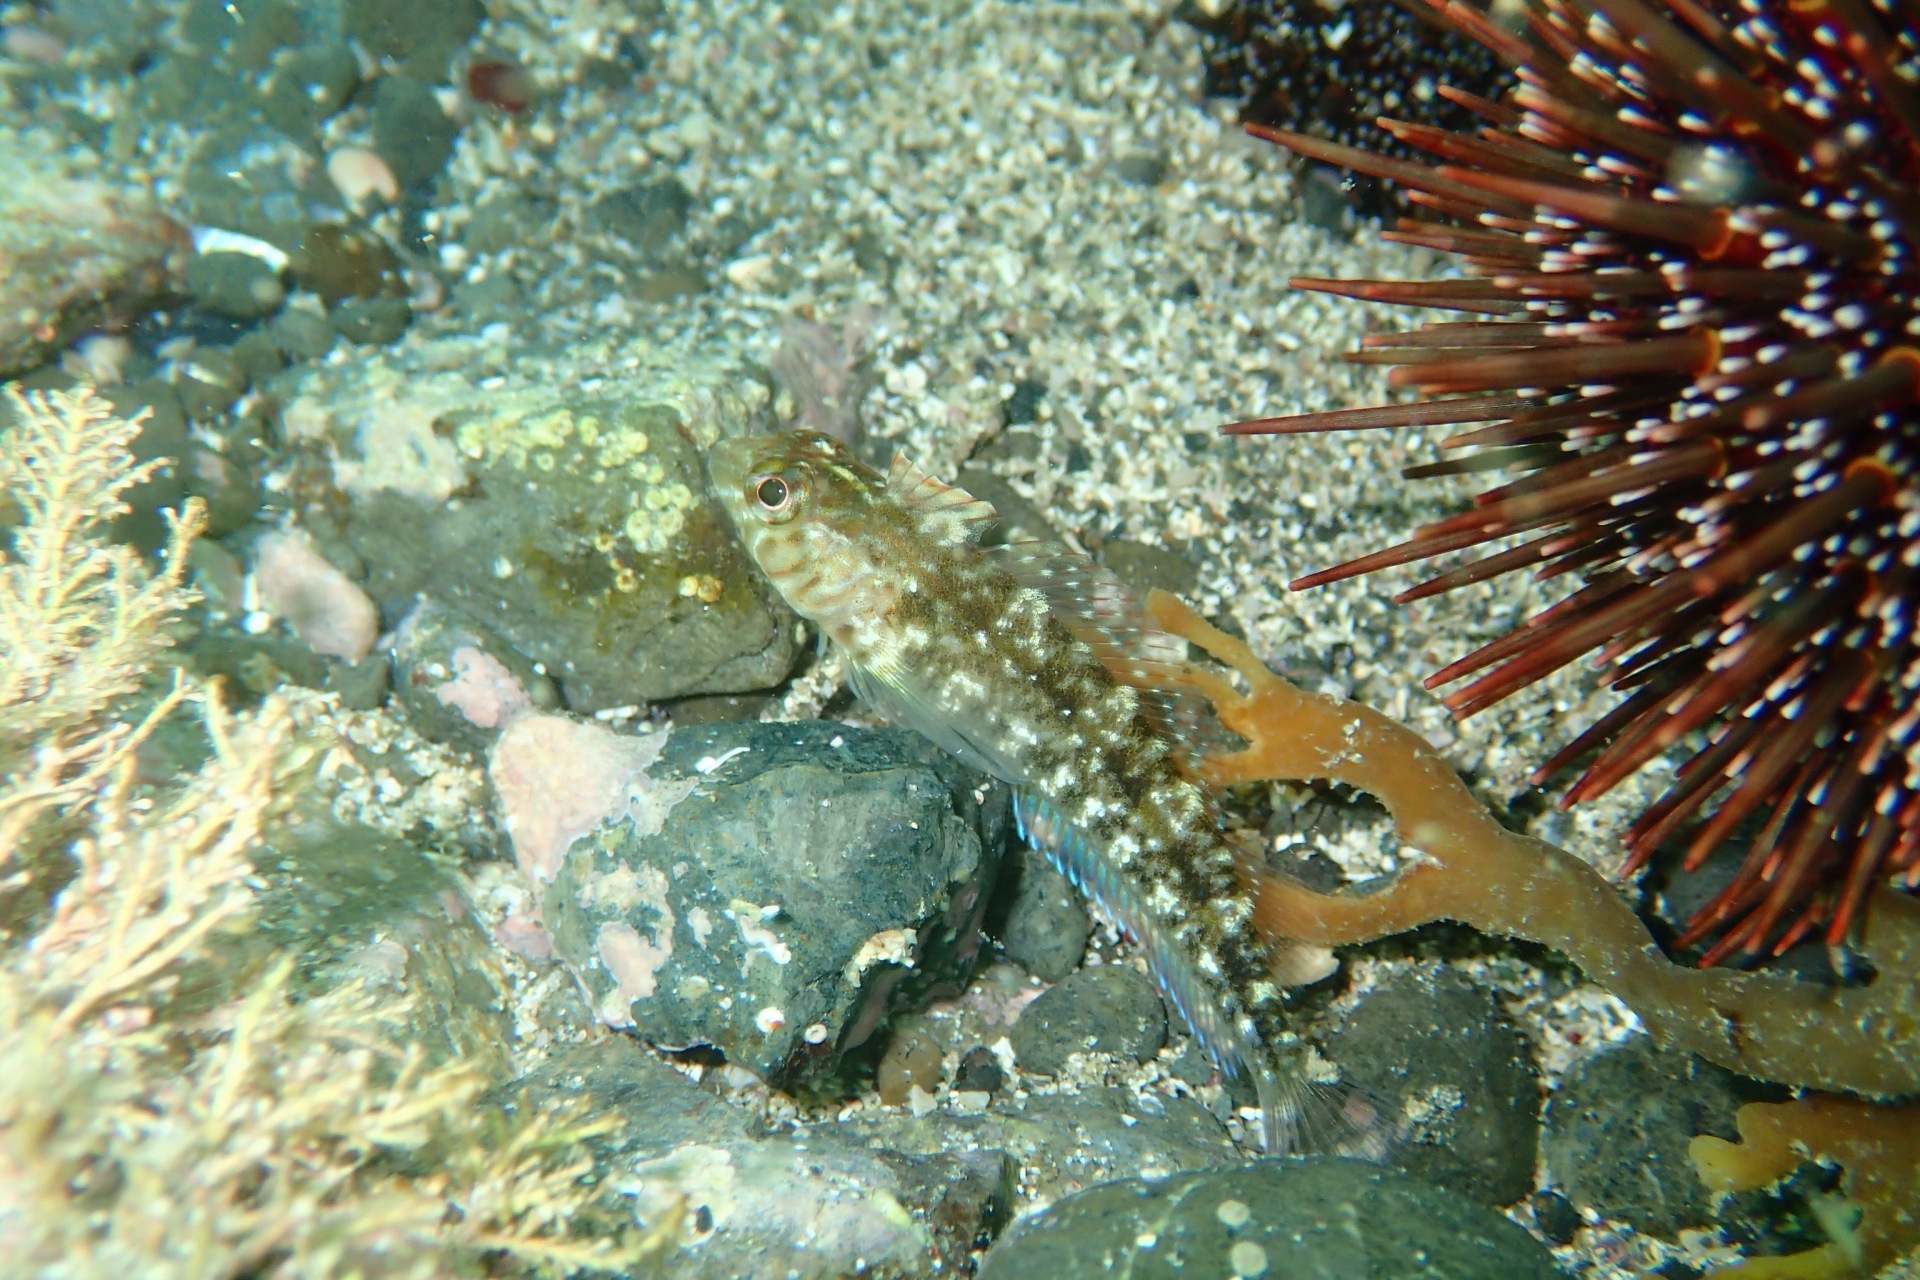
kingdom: Animalia
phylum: Chordata
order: Perciformes
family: Tripterygiidae
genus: Forsterygion
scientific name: Forsterygion lapillum
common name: Common triplefin
